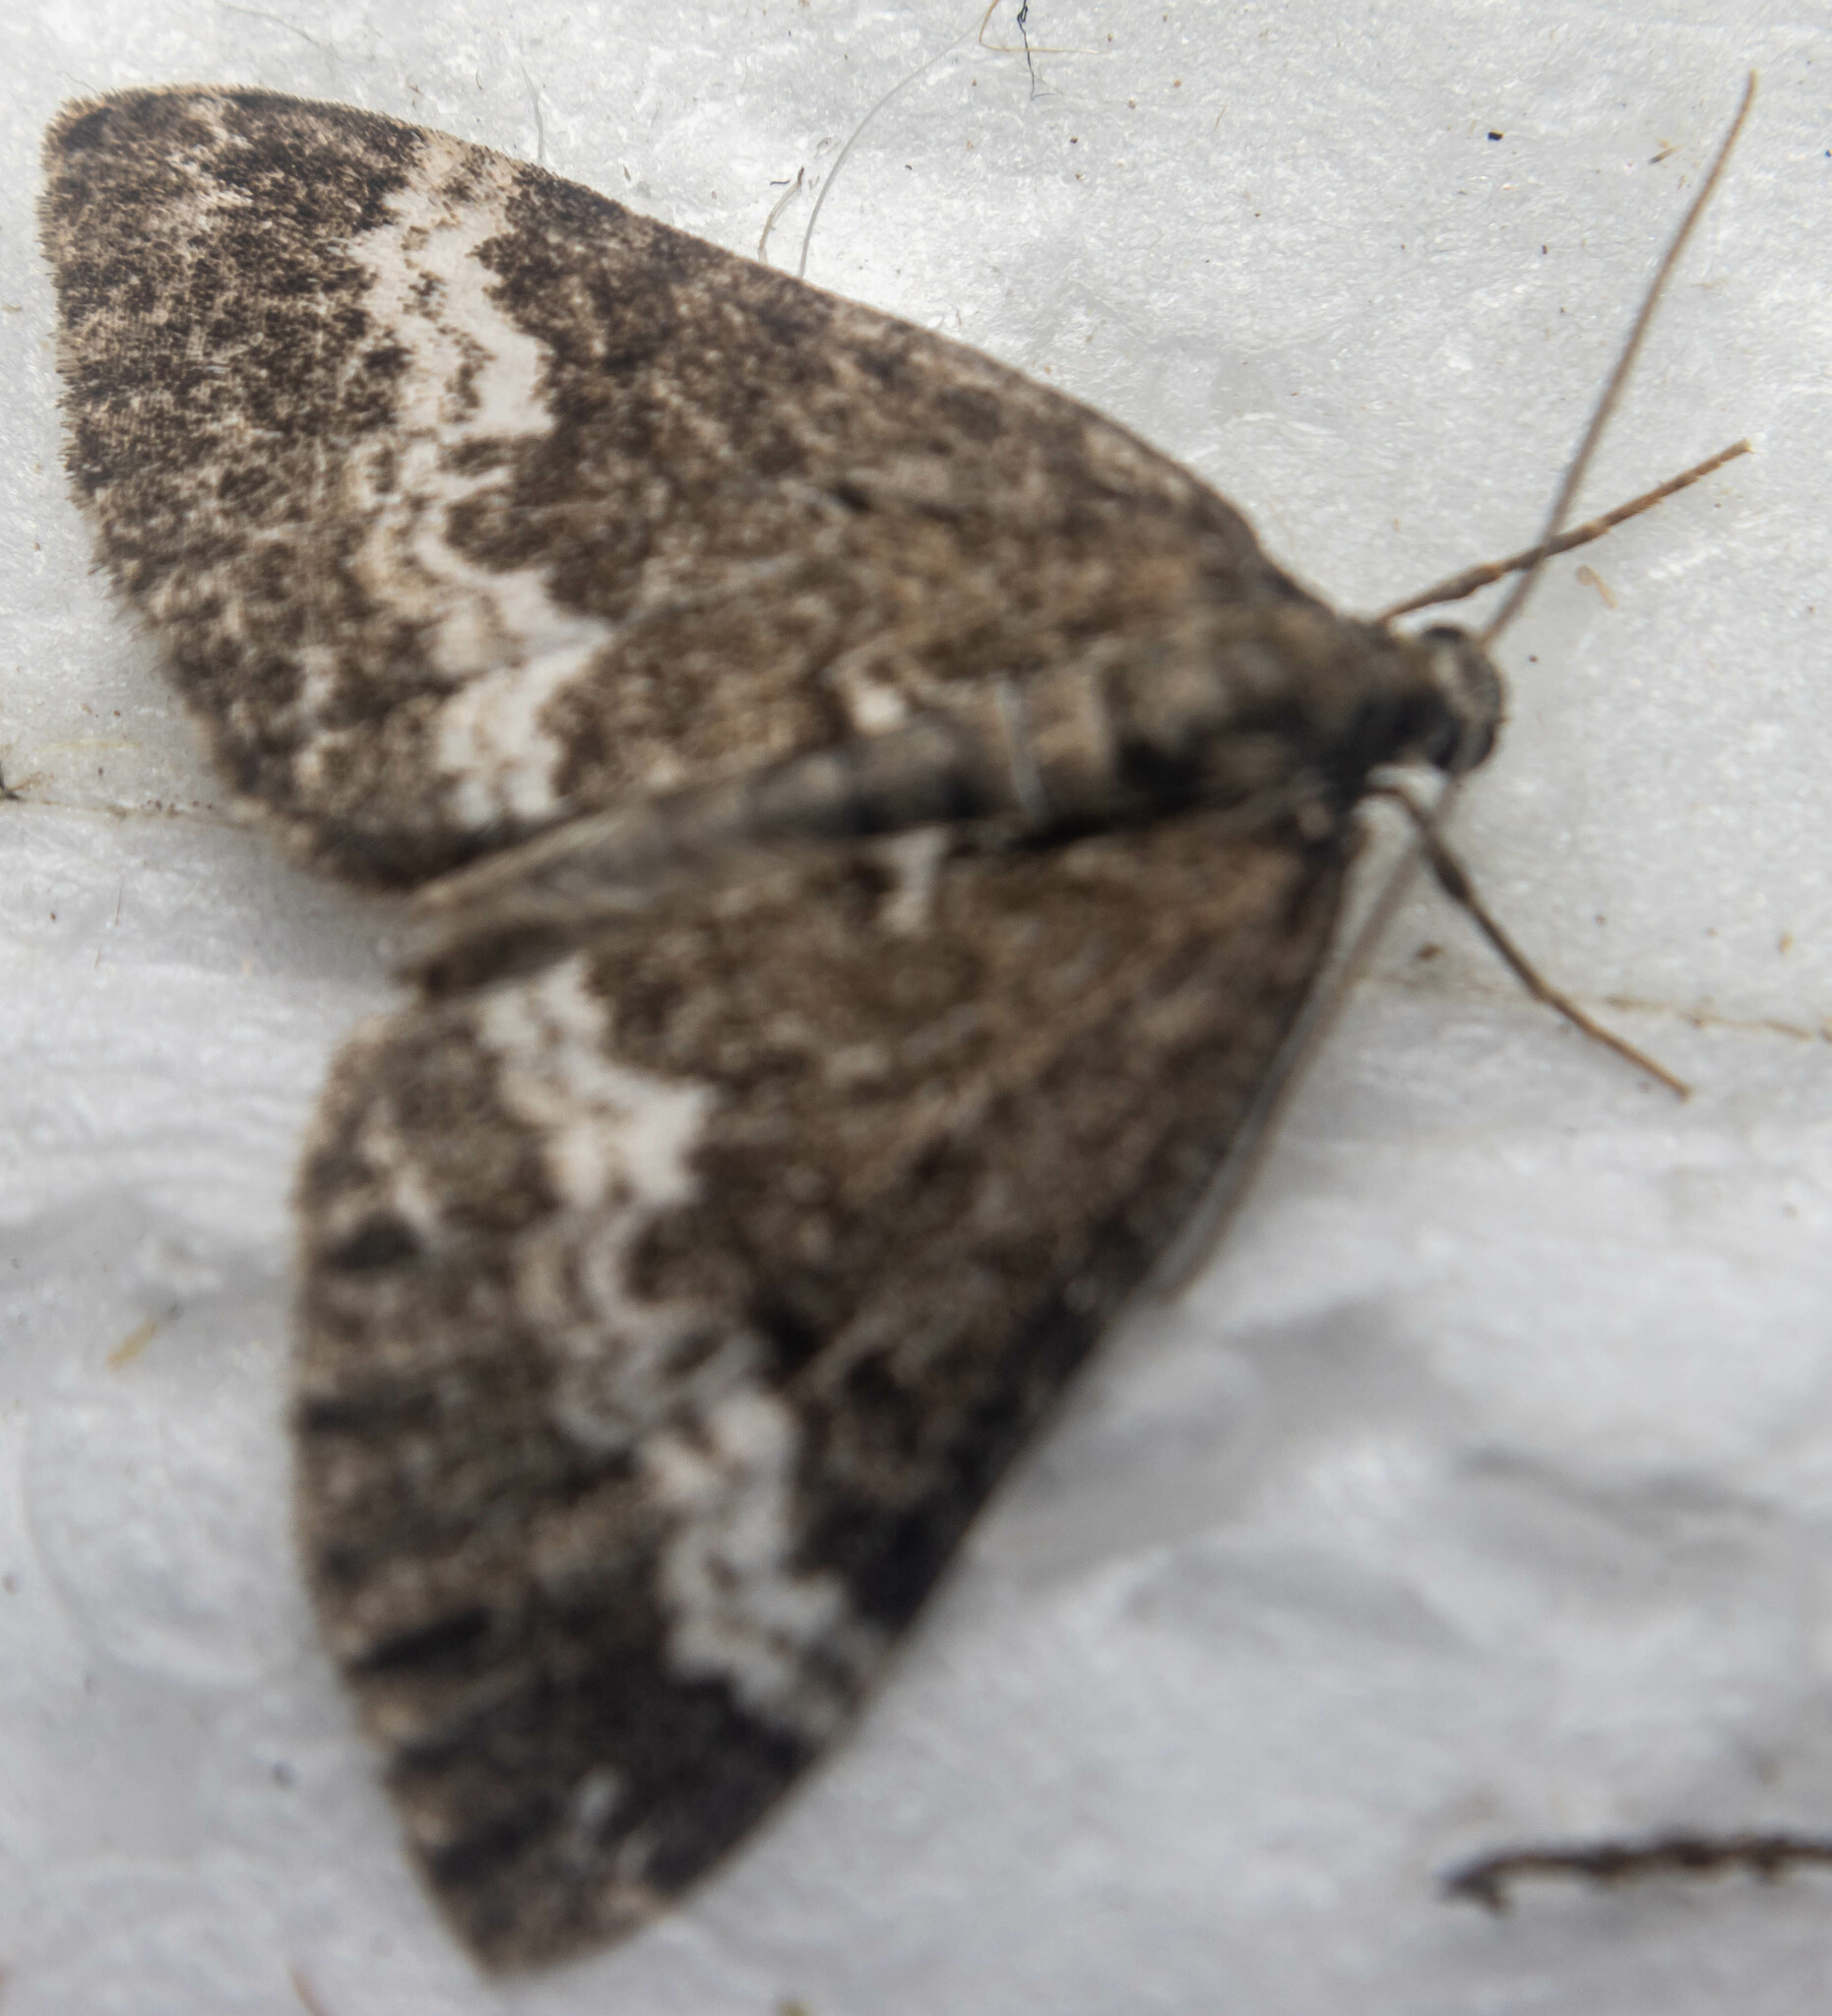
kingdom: Animalia
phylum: Arthropoda
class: Insecta
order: Lepidoptera
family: Geometridae
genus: Perizoma
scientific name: Perizoma affinitata
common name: Rivulet
